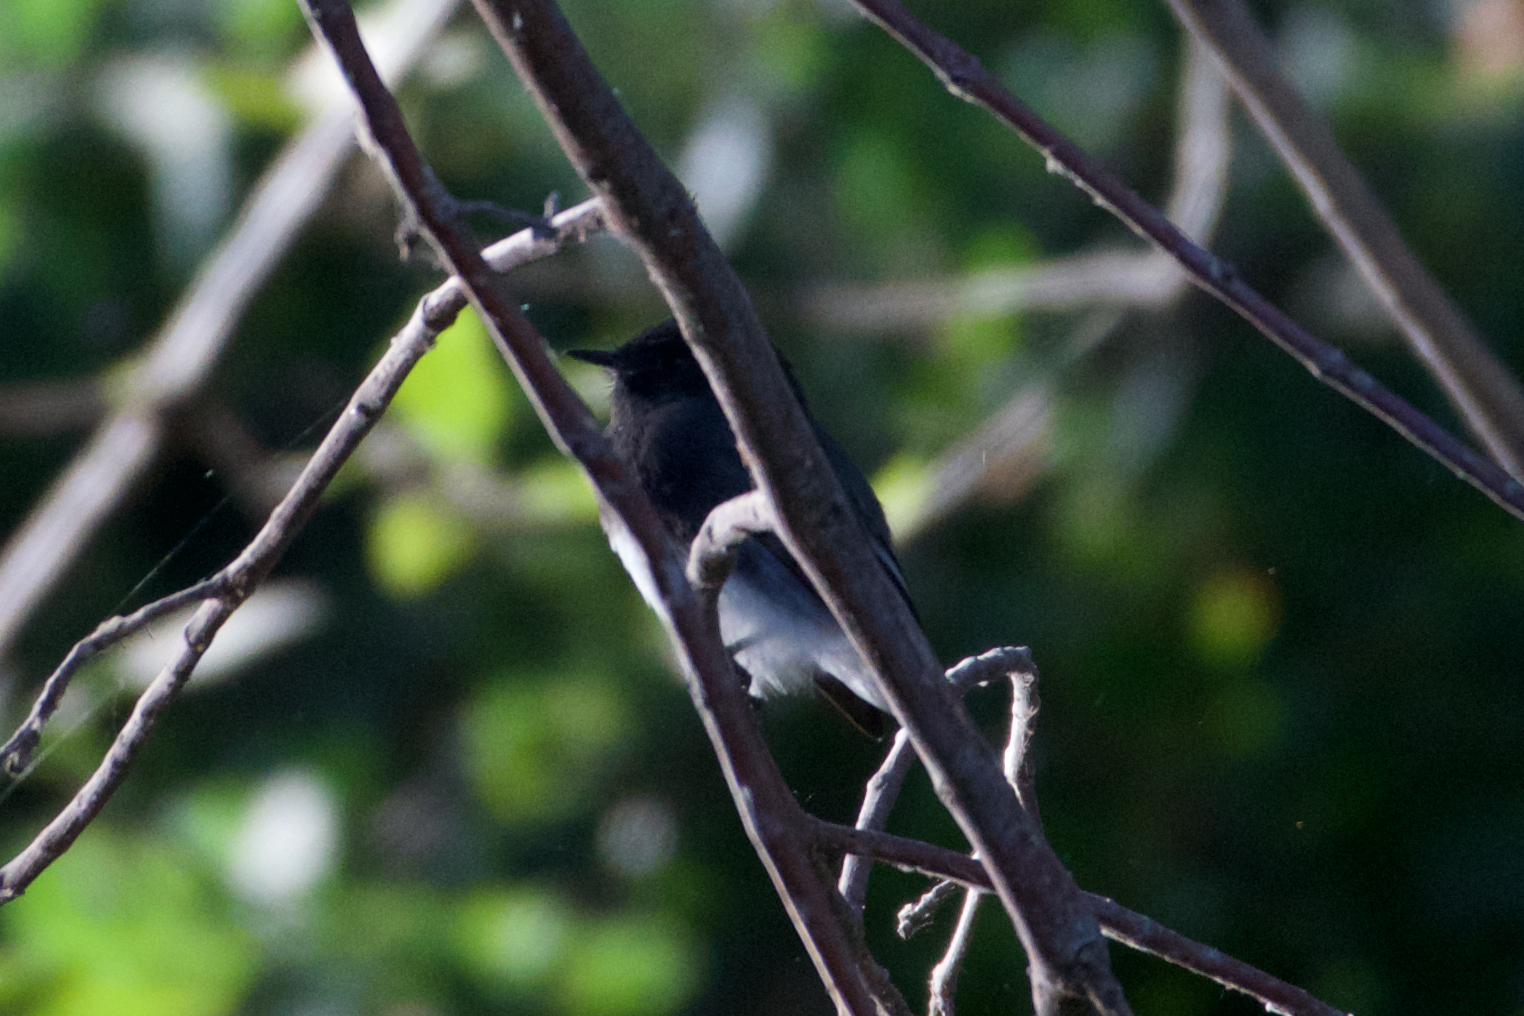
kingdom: Animalia
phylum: Chordata
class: Aves
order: Passeriformes
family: Tyrannidae
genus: Sayornis
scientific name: Sayornis nigricans
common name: Black phoebe
